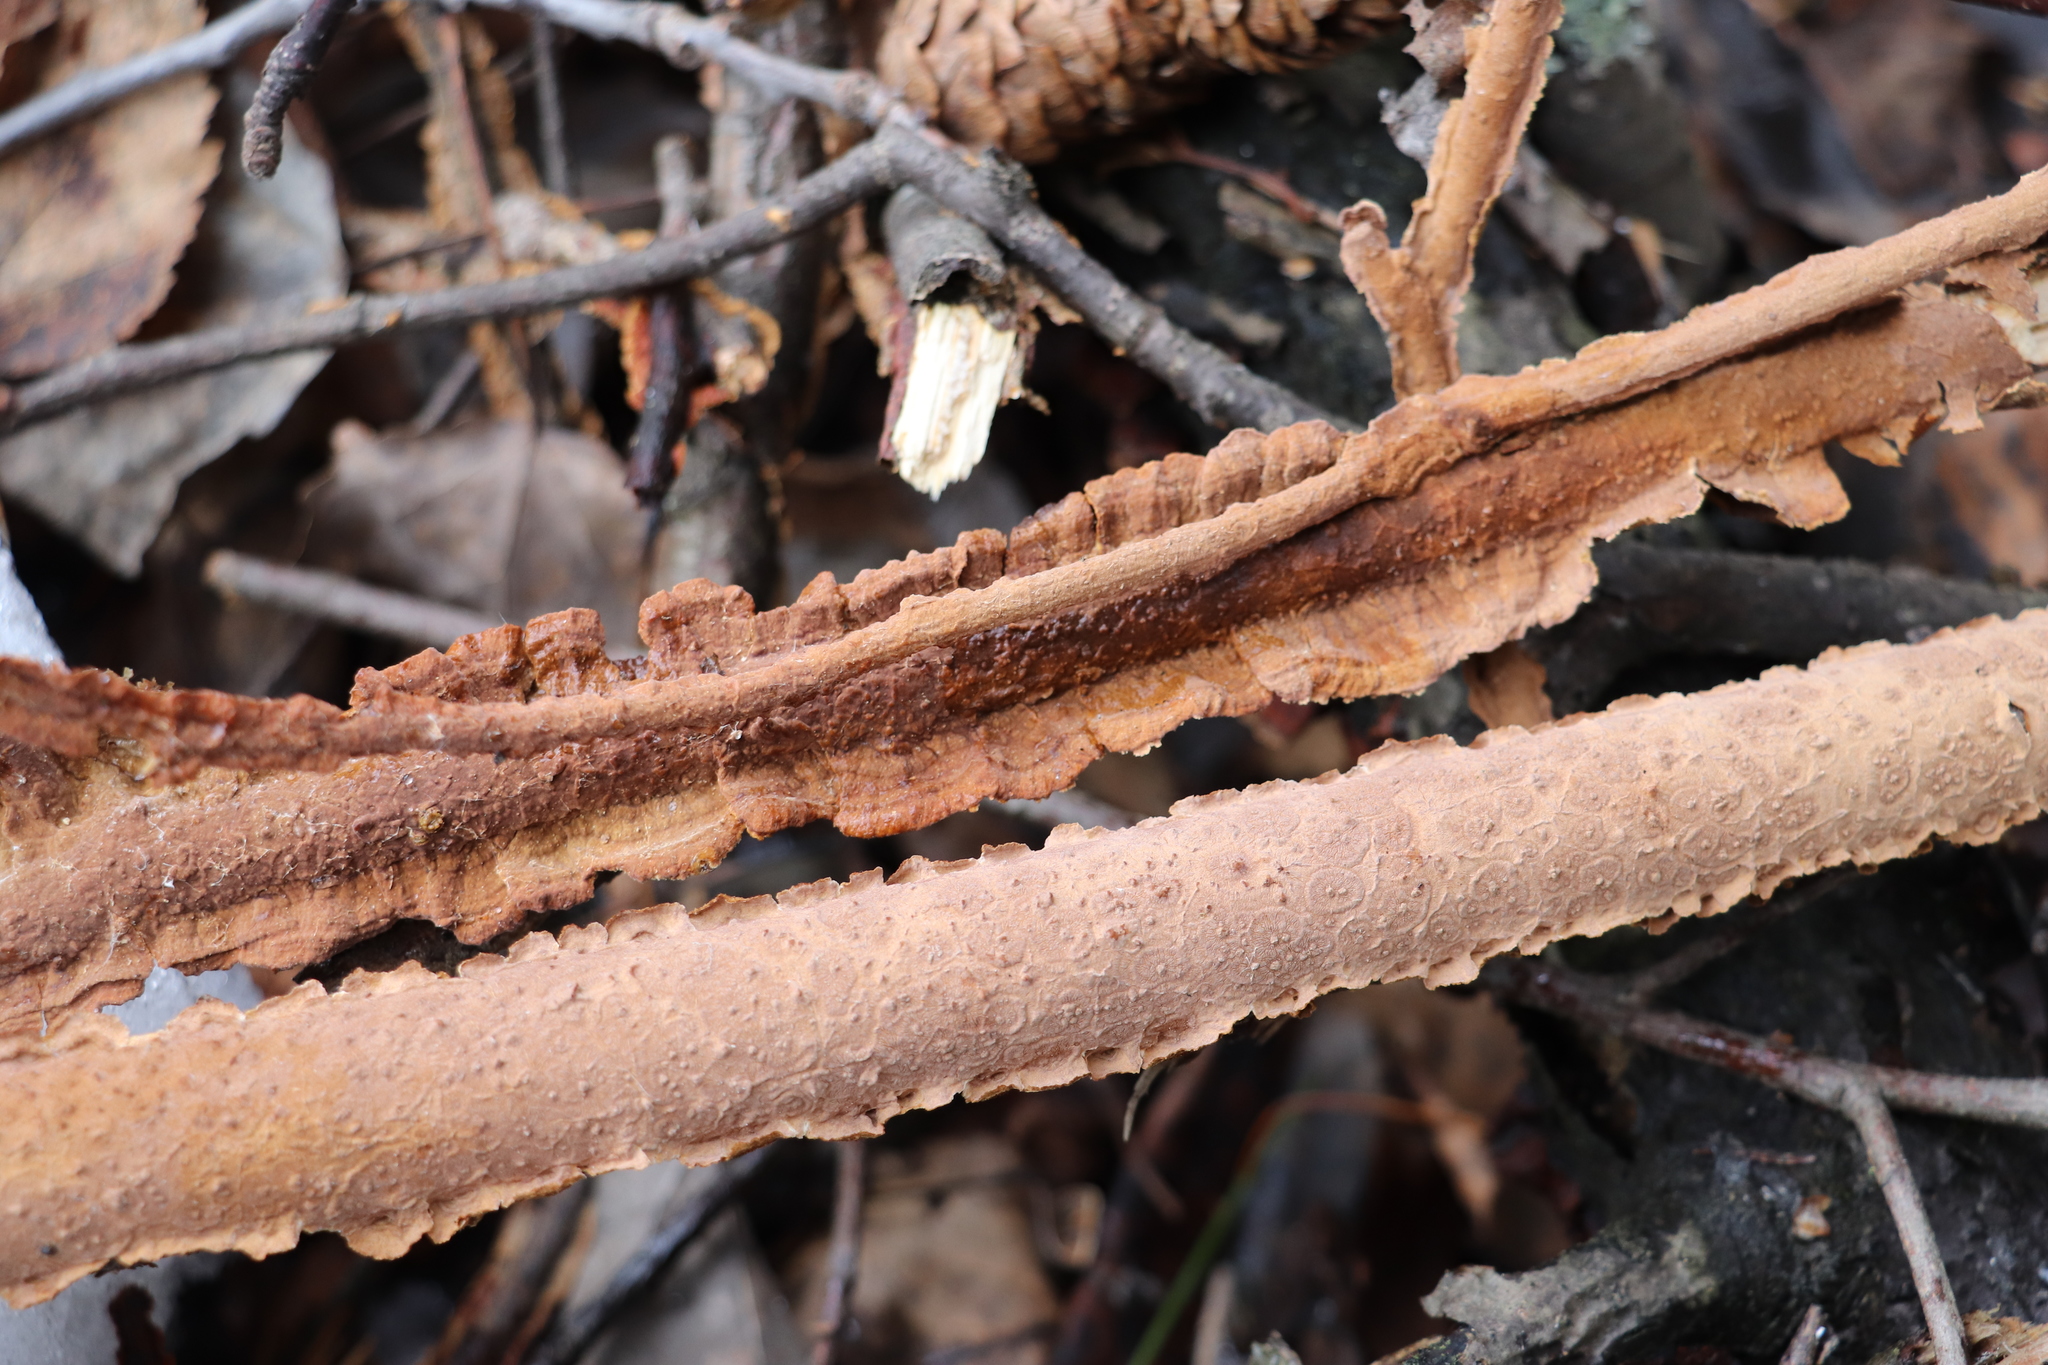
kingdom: Fungi
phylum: Basidiomycota
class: Agaricomycetes
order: Hymenochaetales
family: Hymenochaetaceae
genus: Hydnoporia
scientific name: Hydnoporia tabacina
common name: Willow glue
